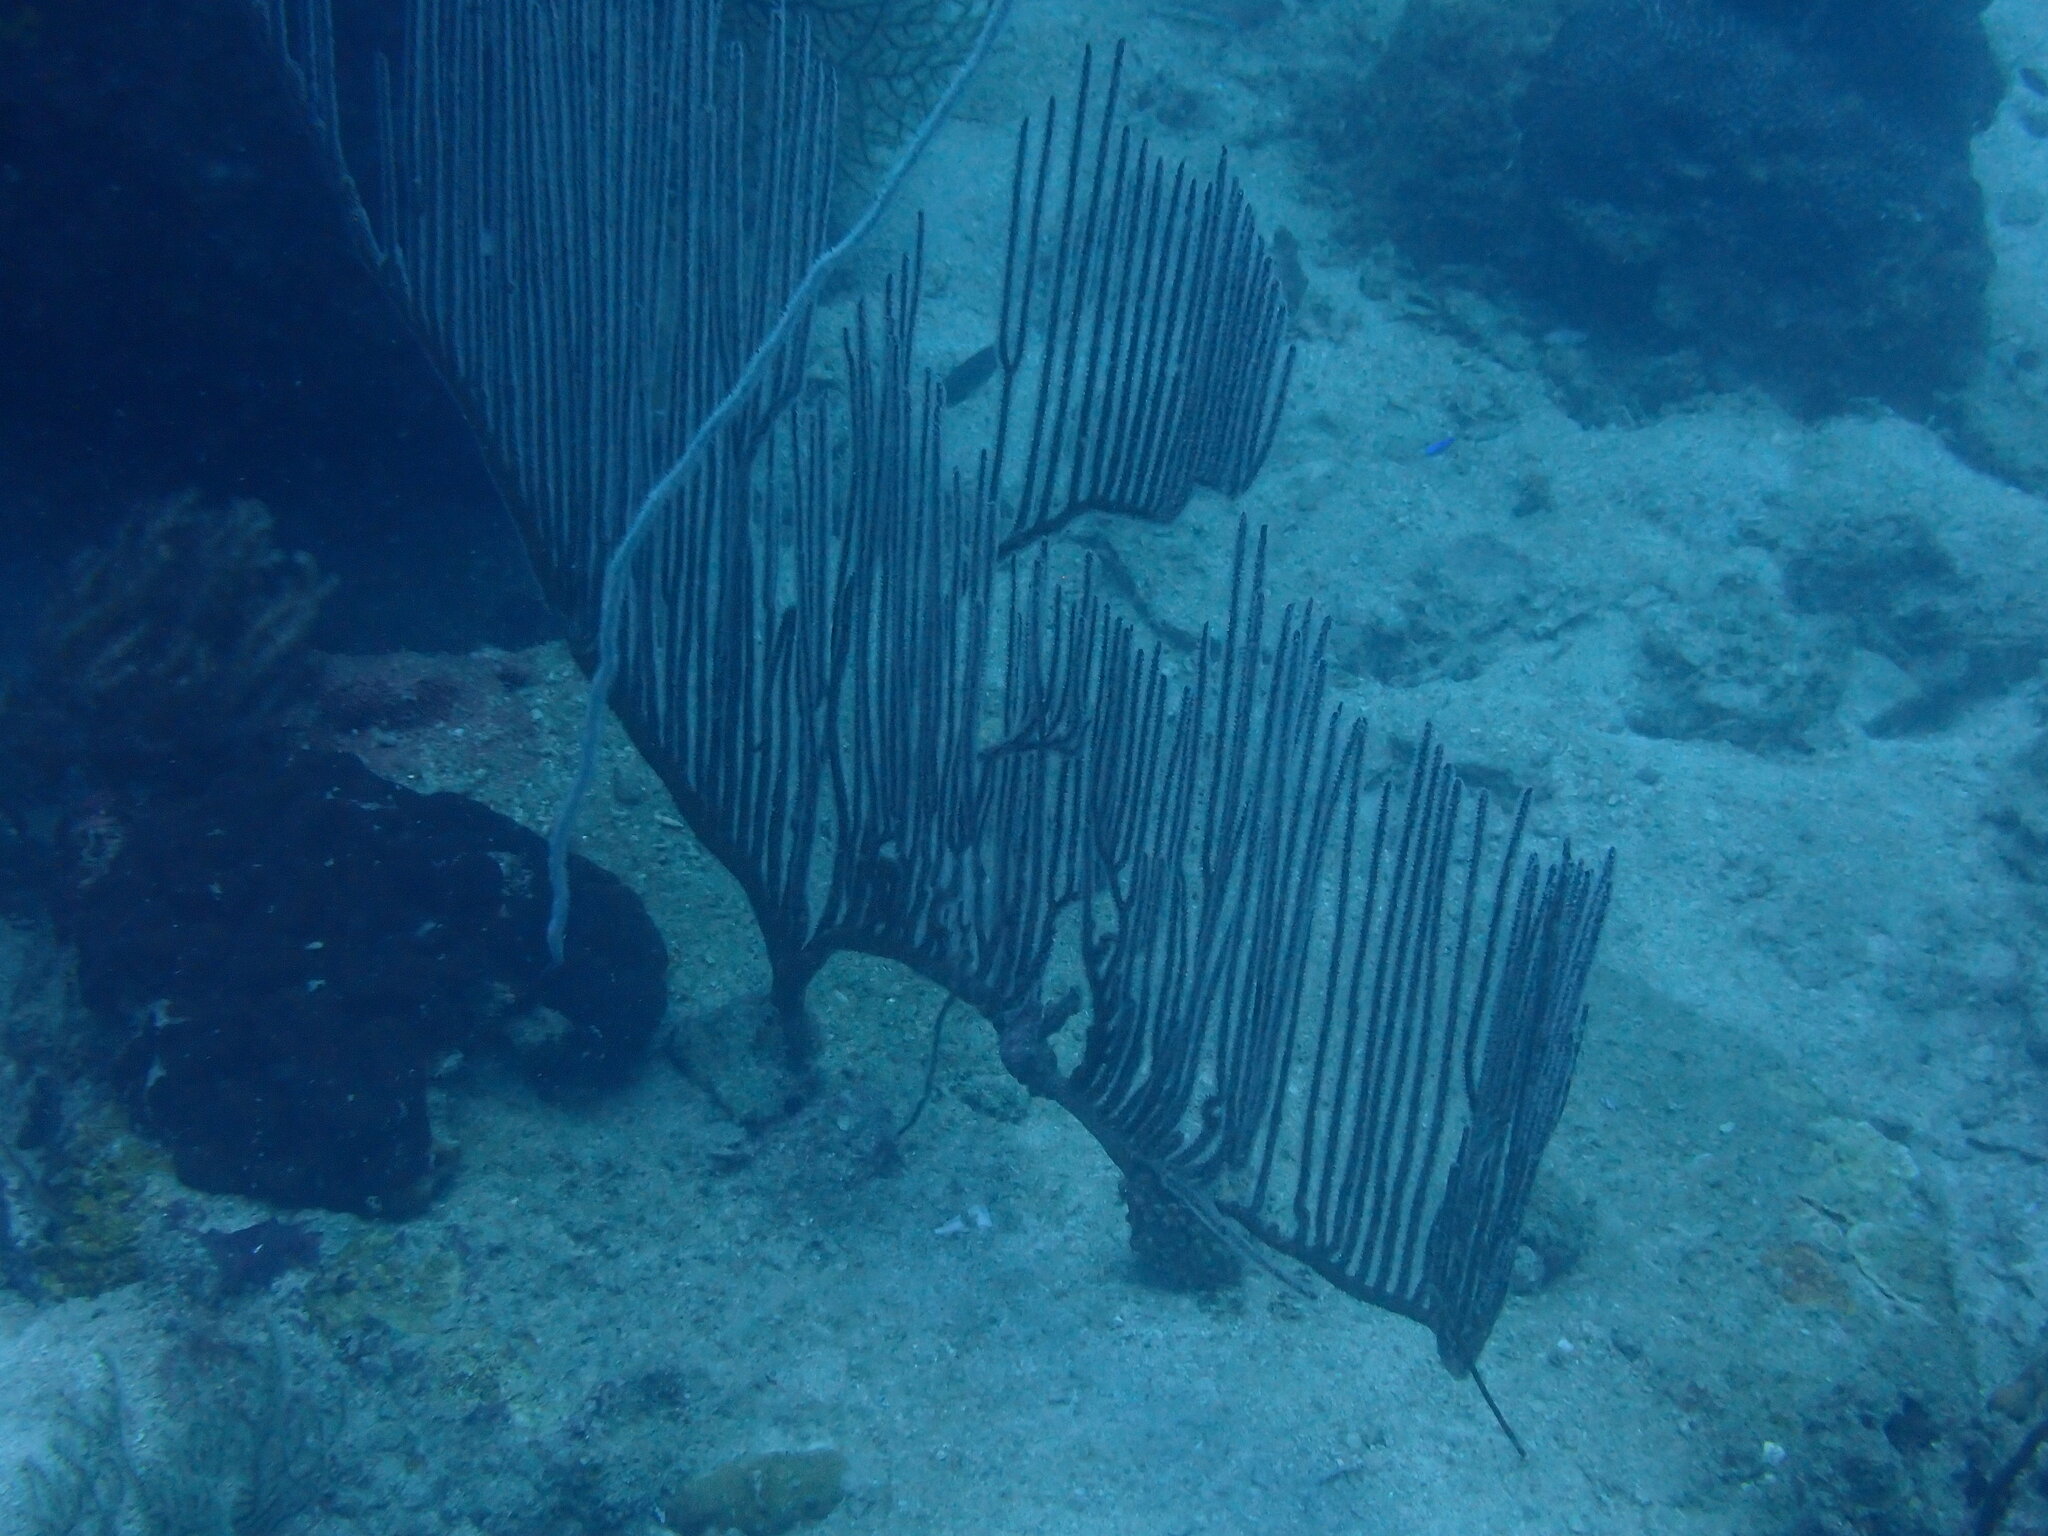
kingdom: Animalia
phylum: Cnidaria
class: Anthozoa
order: Scleralcyonacea
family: Ellisellidae
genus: Ctenocella
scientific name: Ctenocella pectinata
